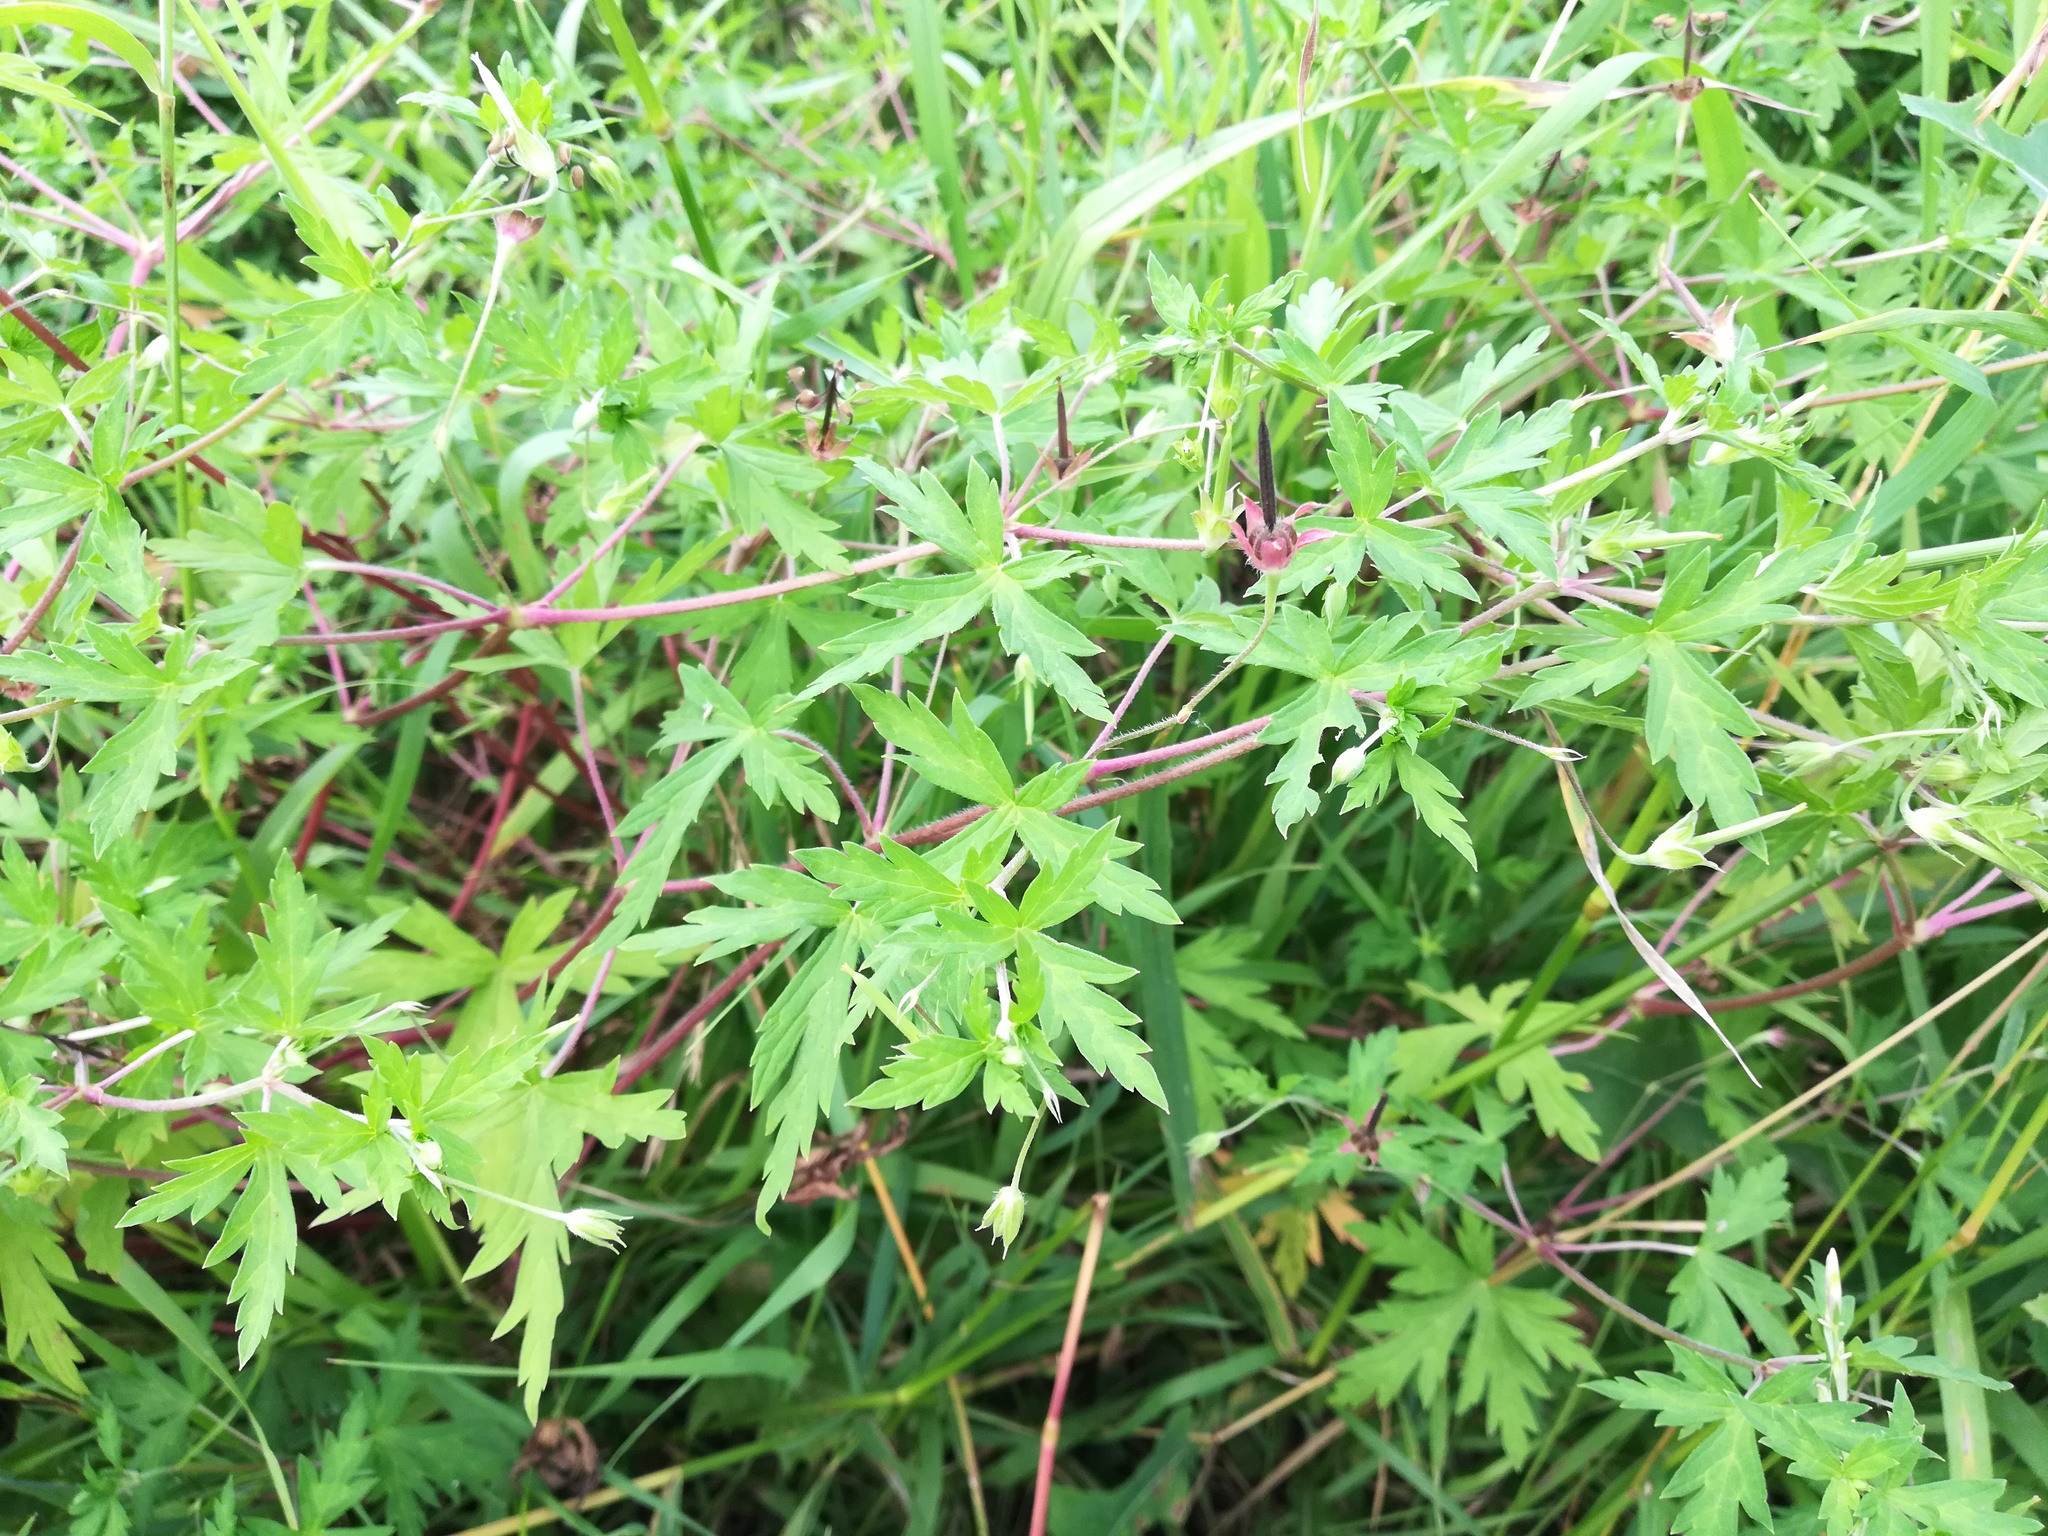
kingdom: Plantae
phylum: Tracheophyta
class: Magnoliopsida
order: Geraniales
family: Geraniaceae
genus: Geranium
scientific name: Geranium sibiricum
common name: Siberian crane's-bill
